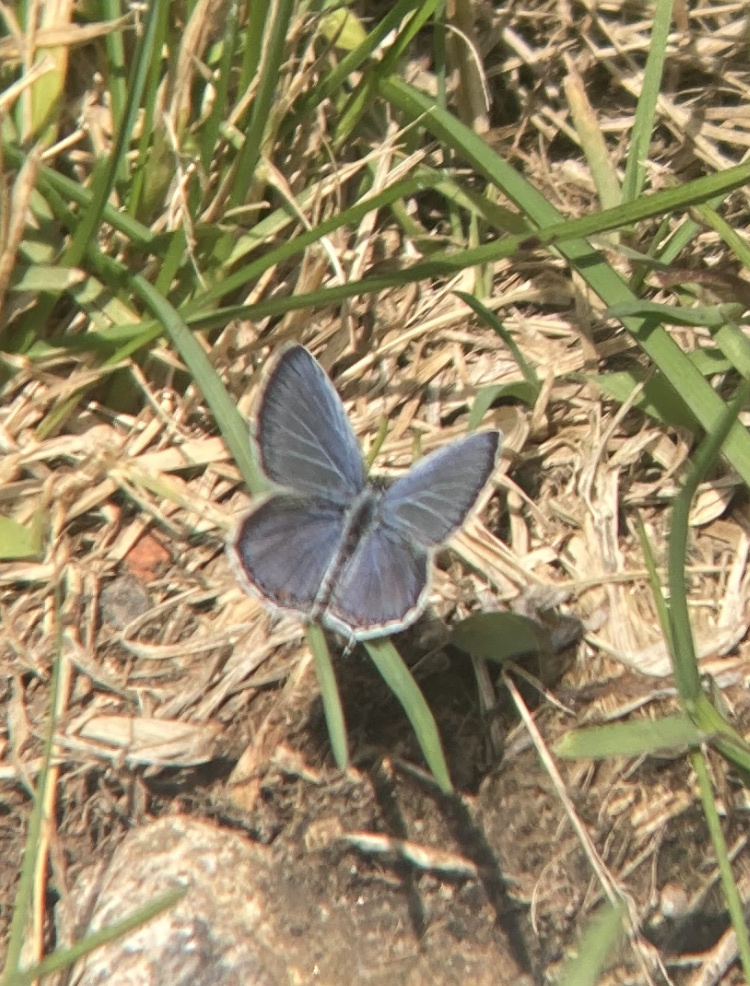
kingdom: Animalia
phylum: Arthropoda
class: Insecta
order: Lepidoptera
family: Lycaenidae
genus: Elkalyce
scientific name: Elkalyce comyntas
